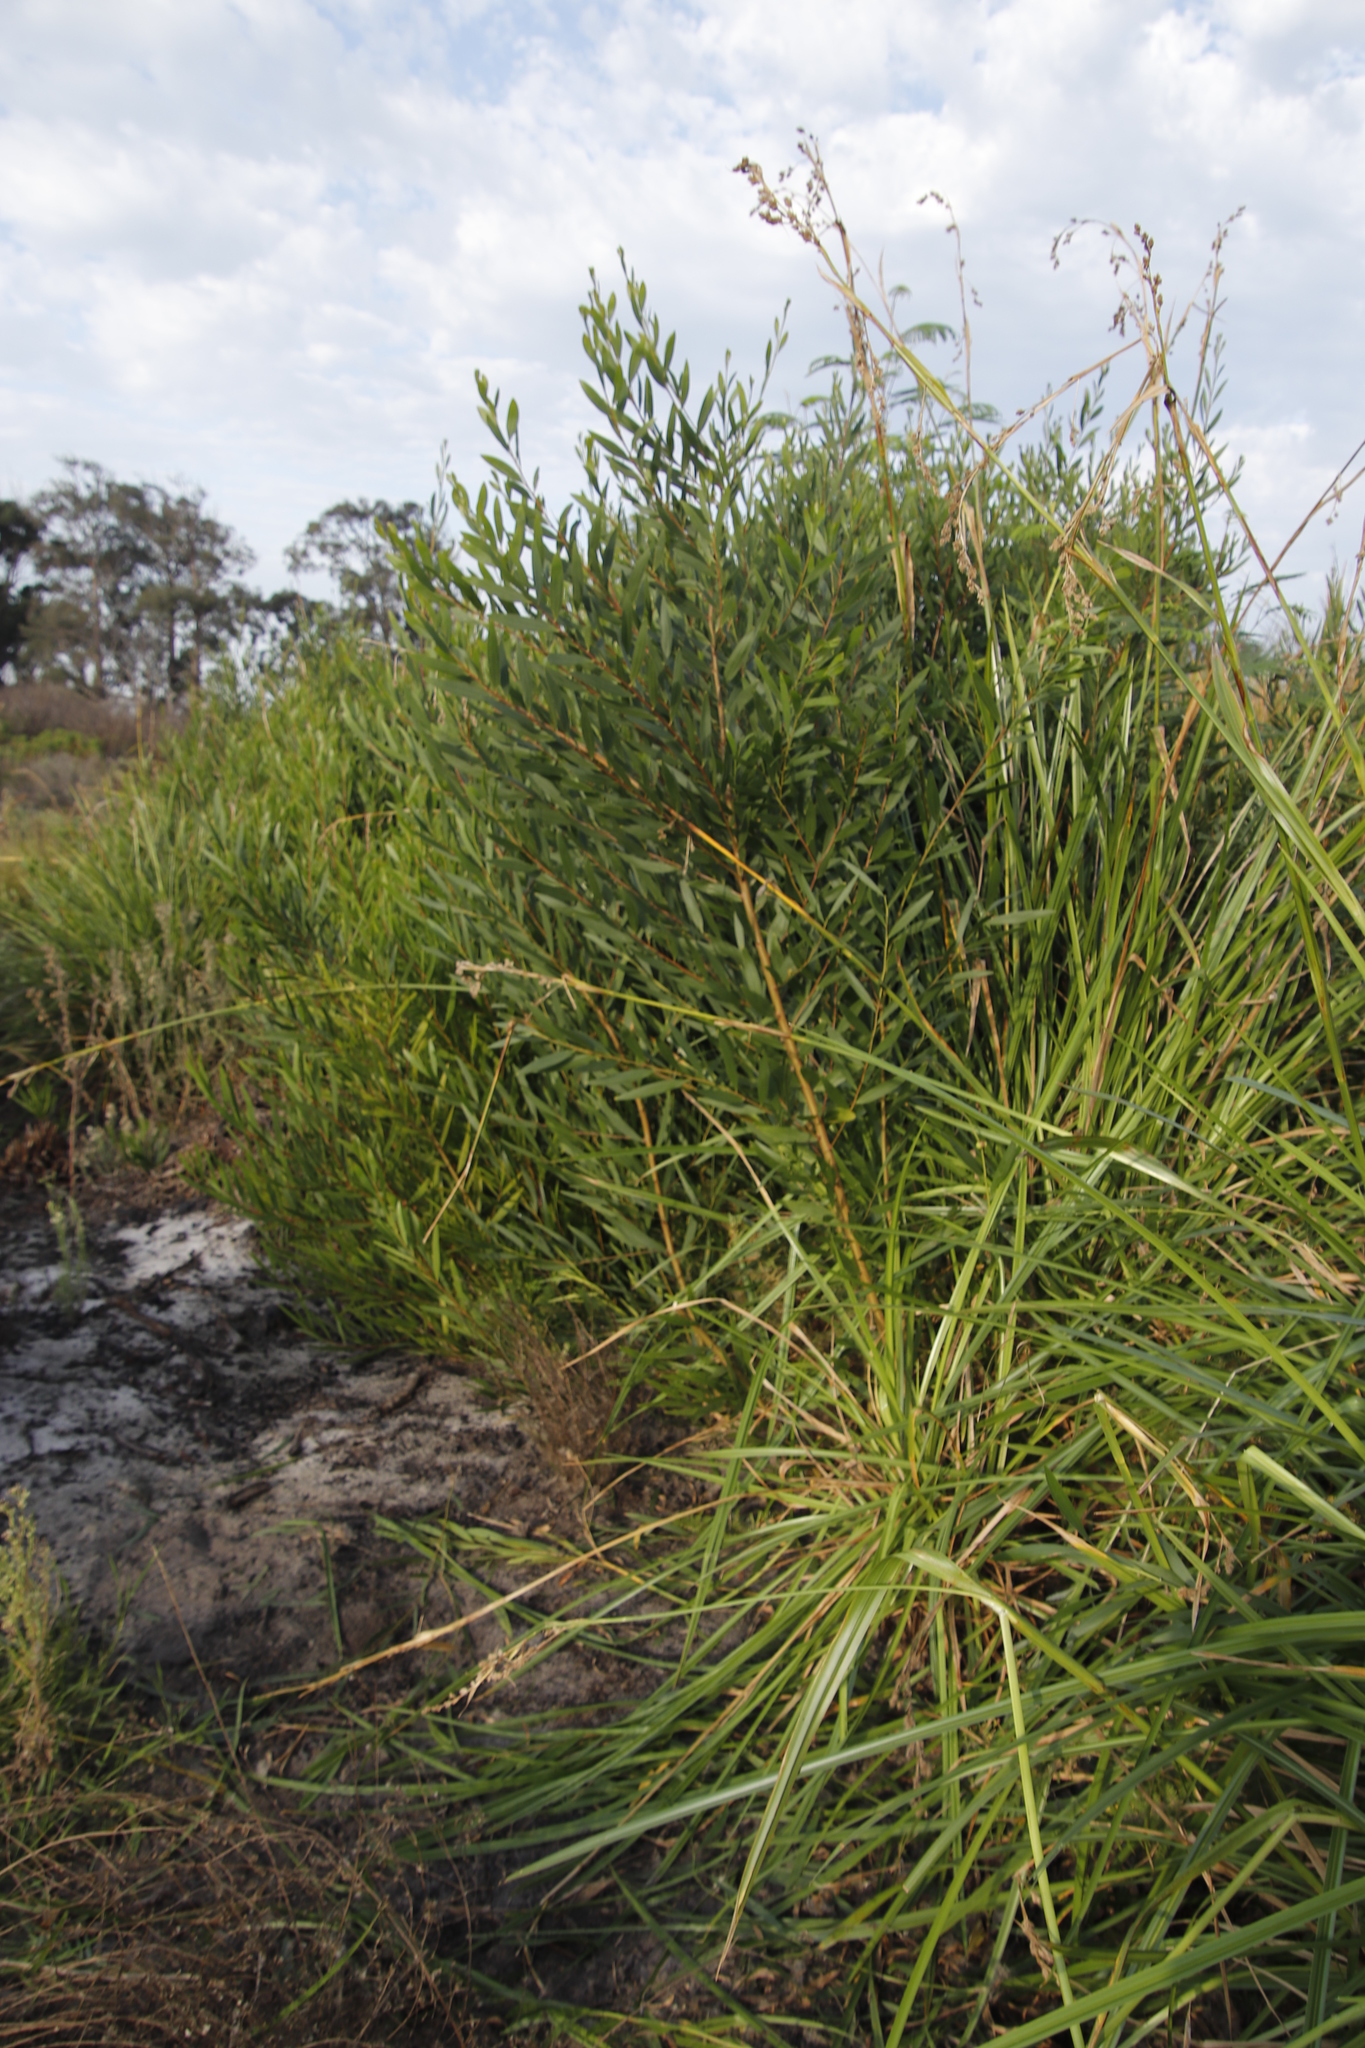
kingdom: Plantae
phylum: Tracheophyta
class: Liliopsida
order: Poales
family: Cyperaceae
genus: Carpha
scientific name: Carpha glomerata
